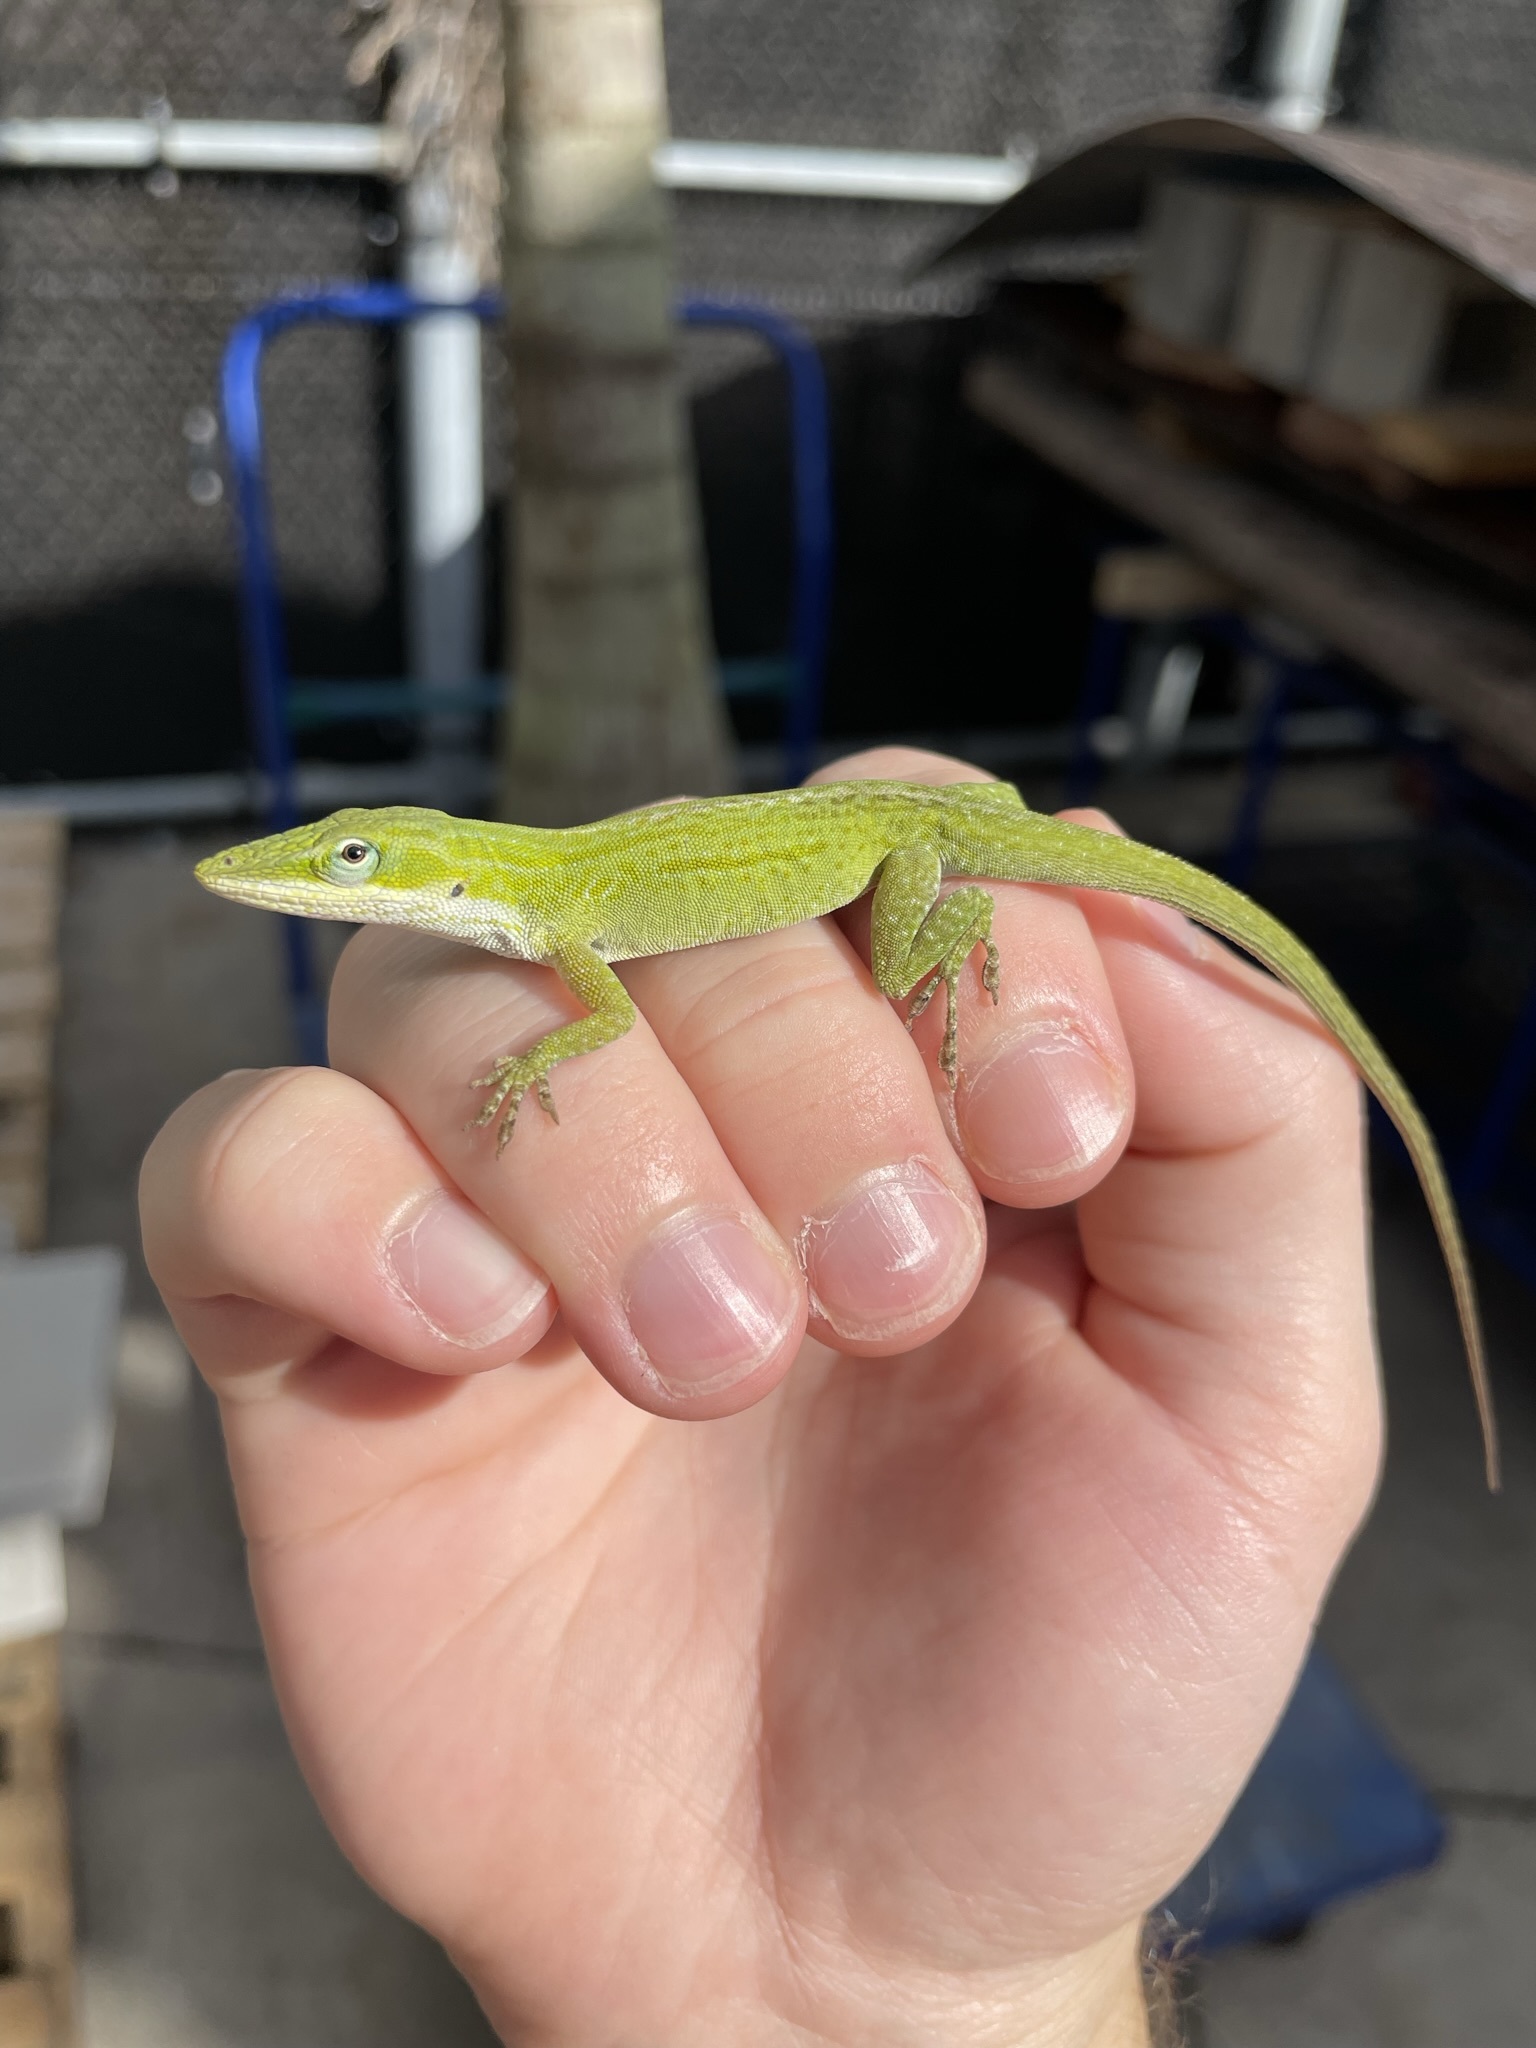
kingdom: Animalia
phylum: Chordata
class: Squamata
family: Dactyloidae
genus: Anolis
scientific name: Anolis carolinensis
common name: Green anole
